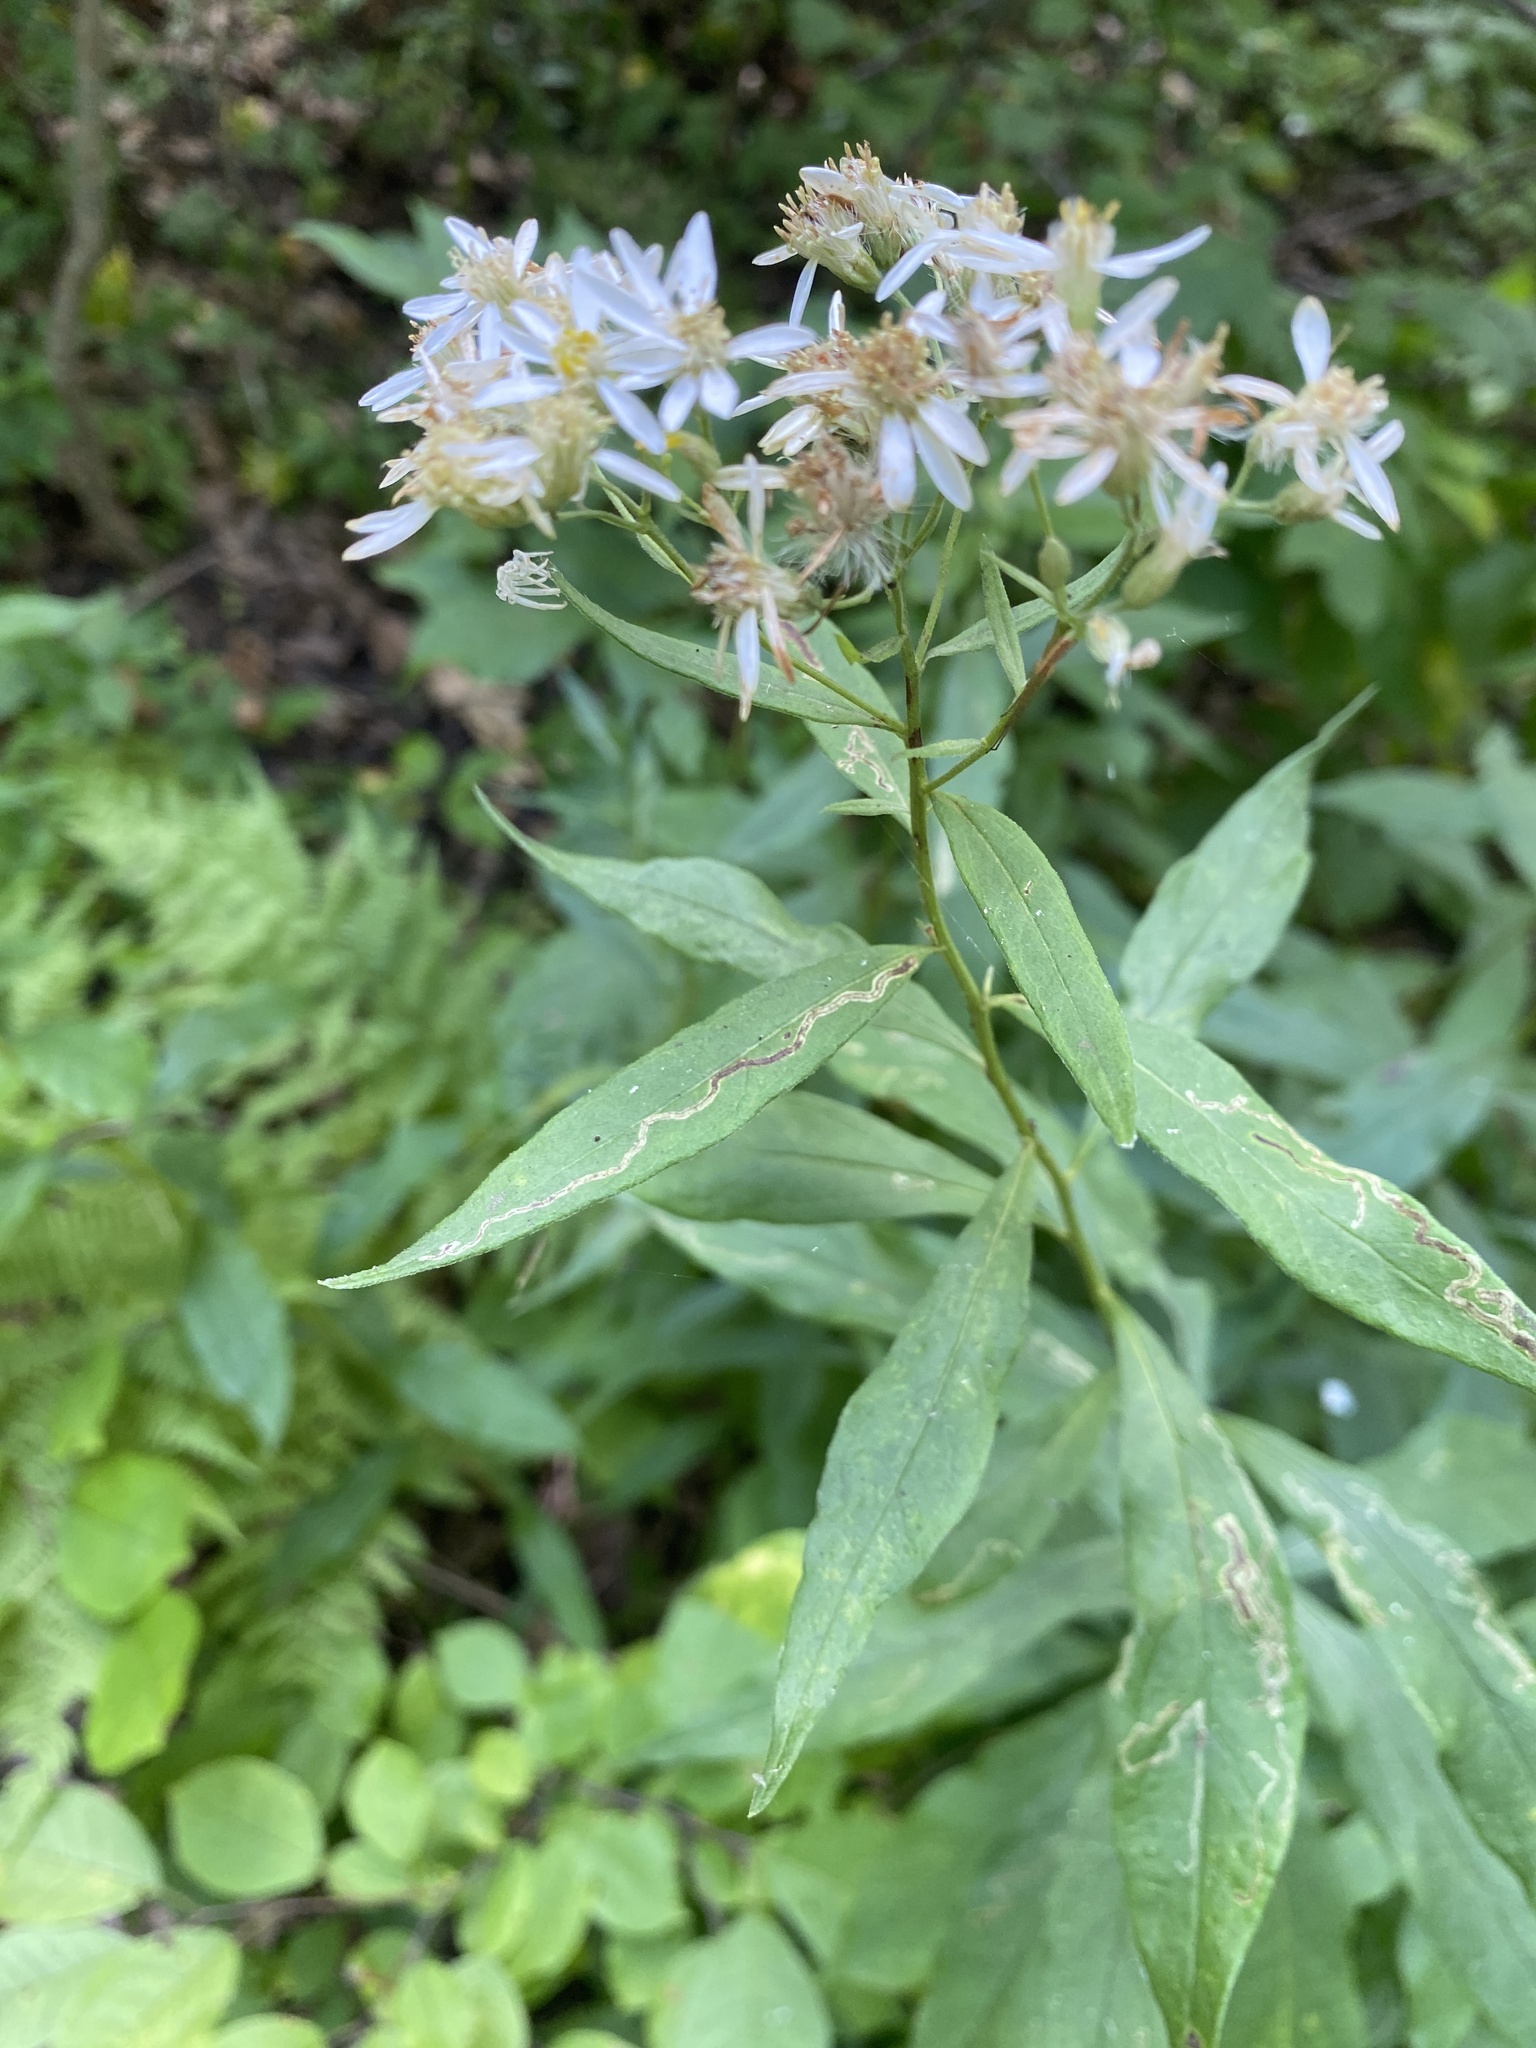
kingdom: Plantae
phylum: Tracheophyta
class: Magnoliopsida
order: Asterales
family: Asteraceae
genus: Doellingeria
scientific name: Doellingeria umbellata
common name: Flat-top white aster
